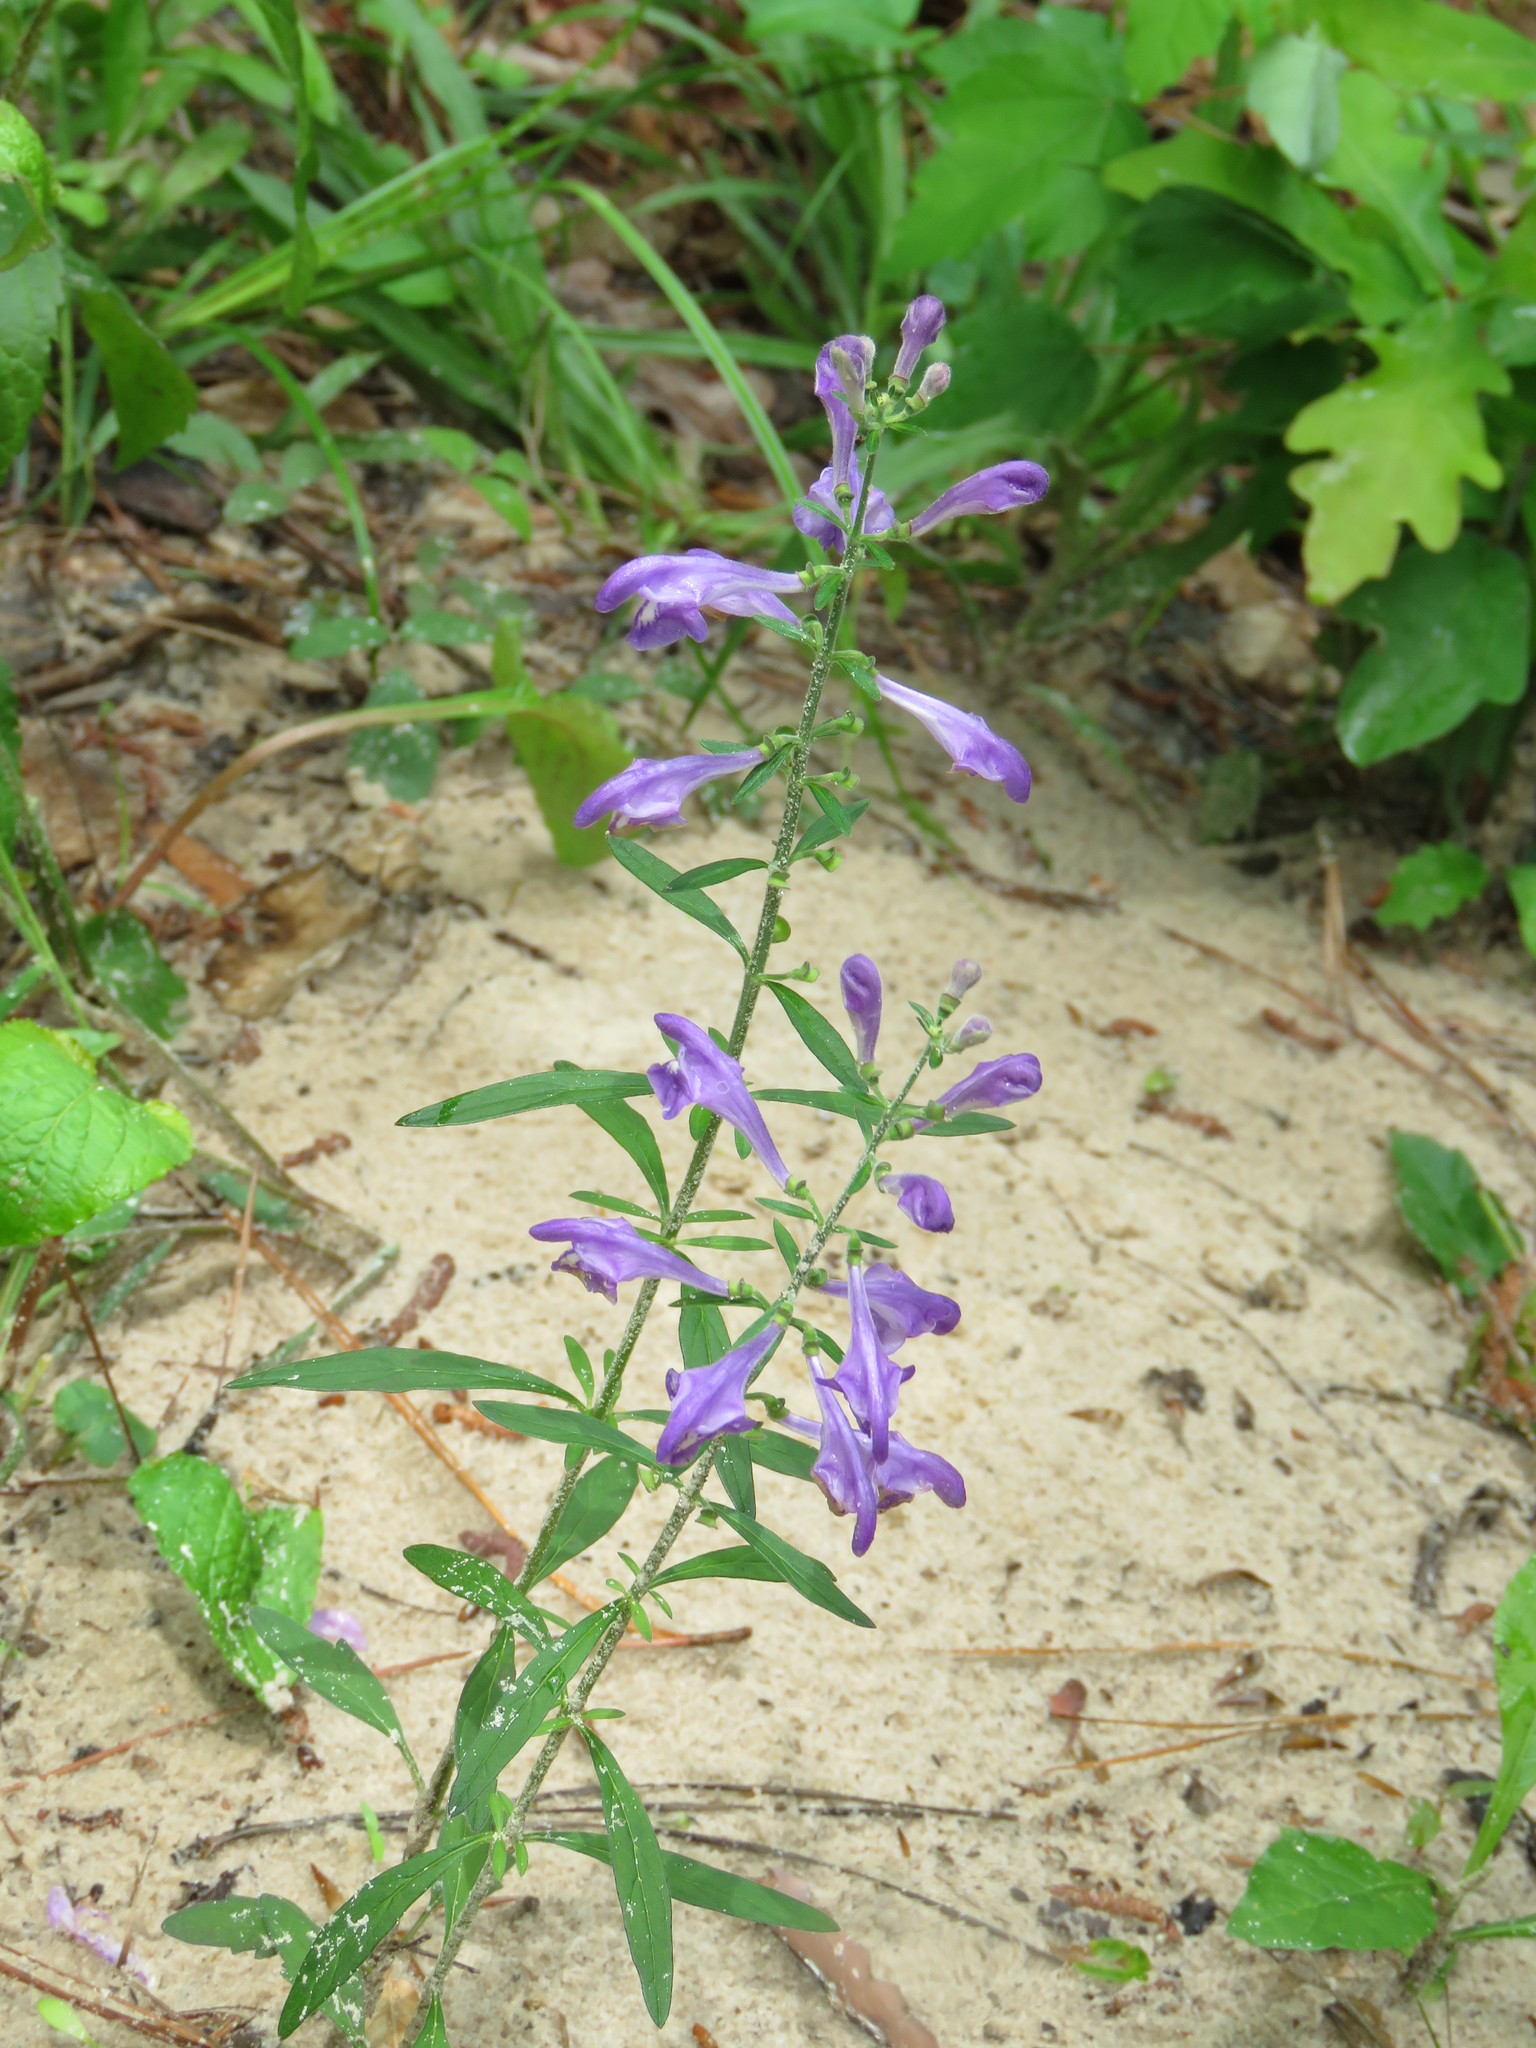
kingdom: Plantae
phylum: Tracheophyta
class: Magnoliopsida
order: Lamiales
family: Lamiaceae
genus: Scutellaria
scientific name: Scutellaria integrifolia
